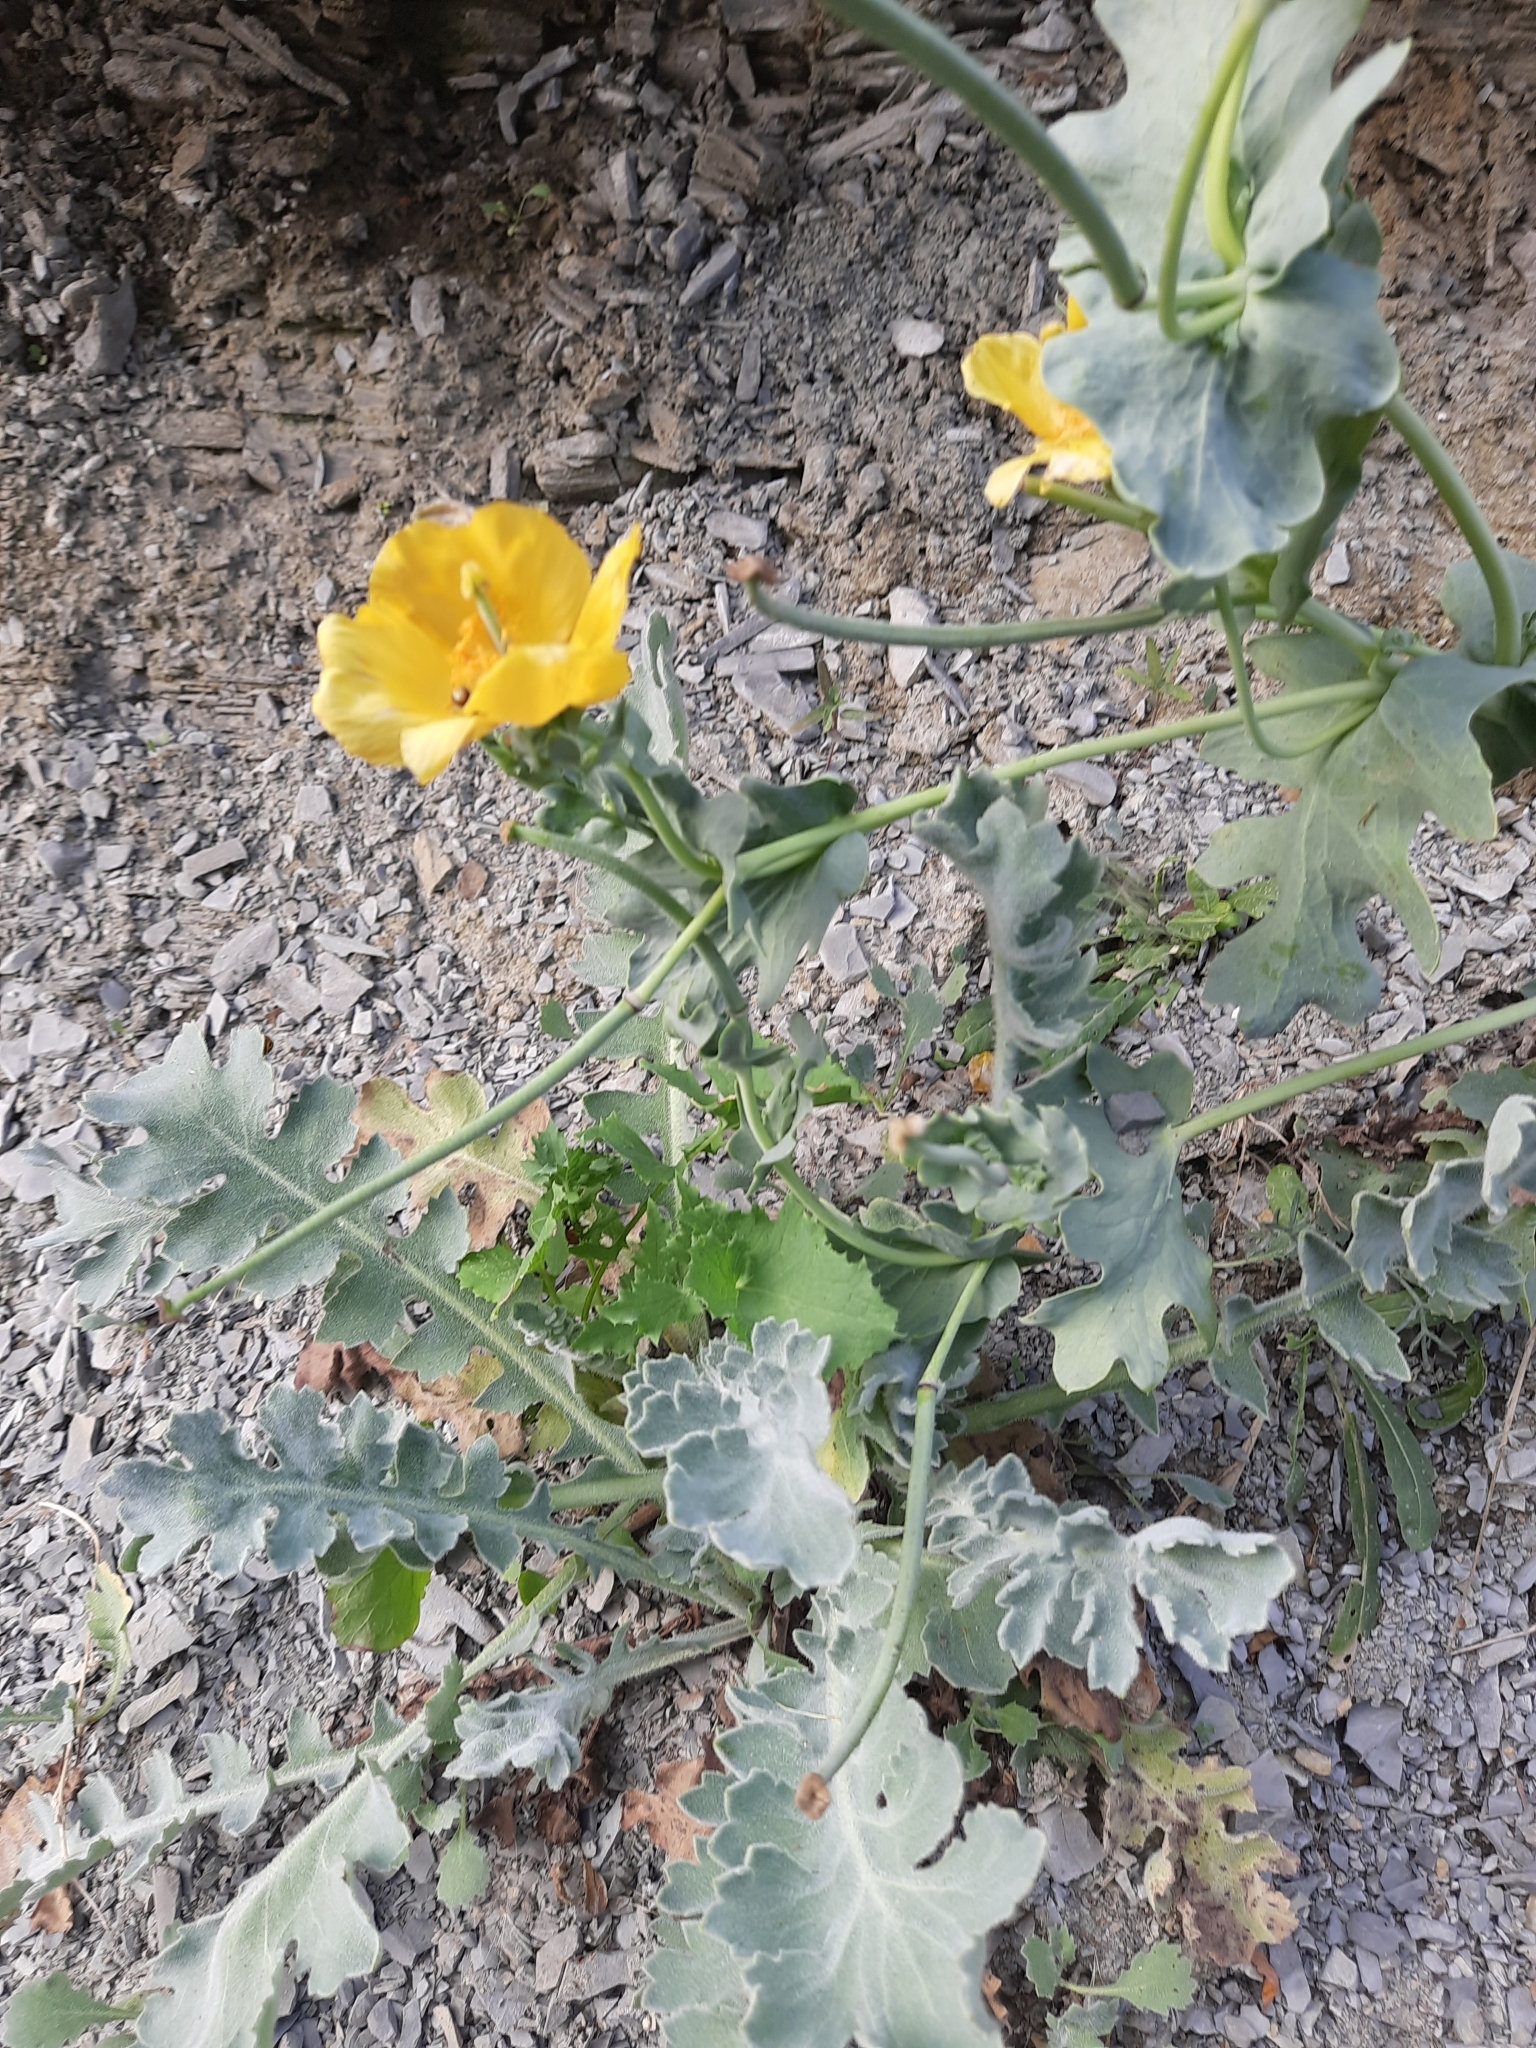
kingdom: Plantae
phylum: Tracheophyta
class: Magnoliopsida
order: Ranunculales
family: Papaveraceae
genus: Glaucium
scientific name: Glaucium flavum
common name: Yellow horned-poppy
